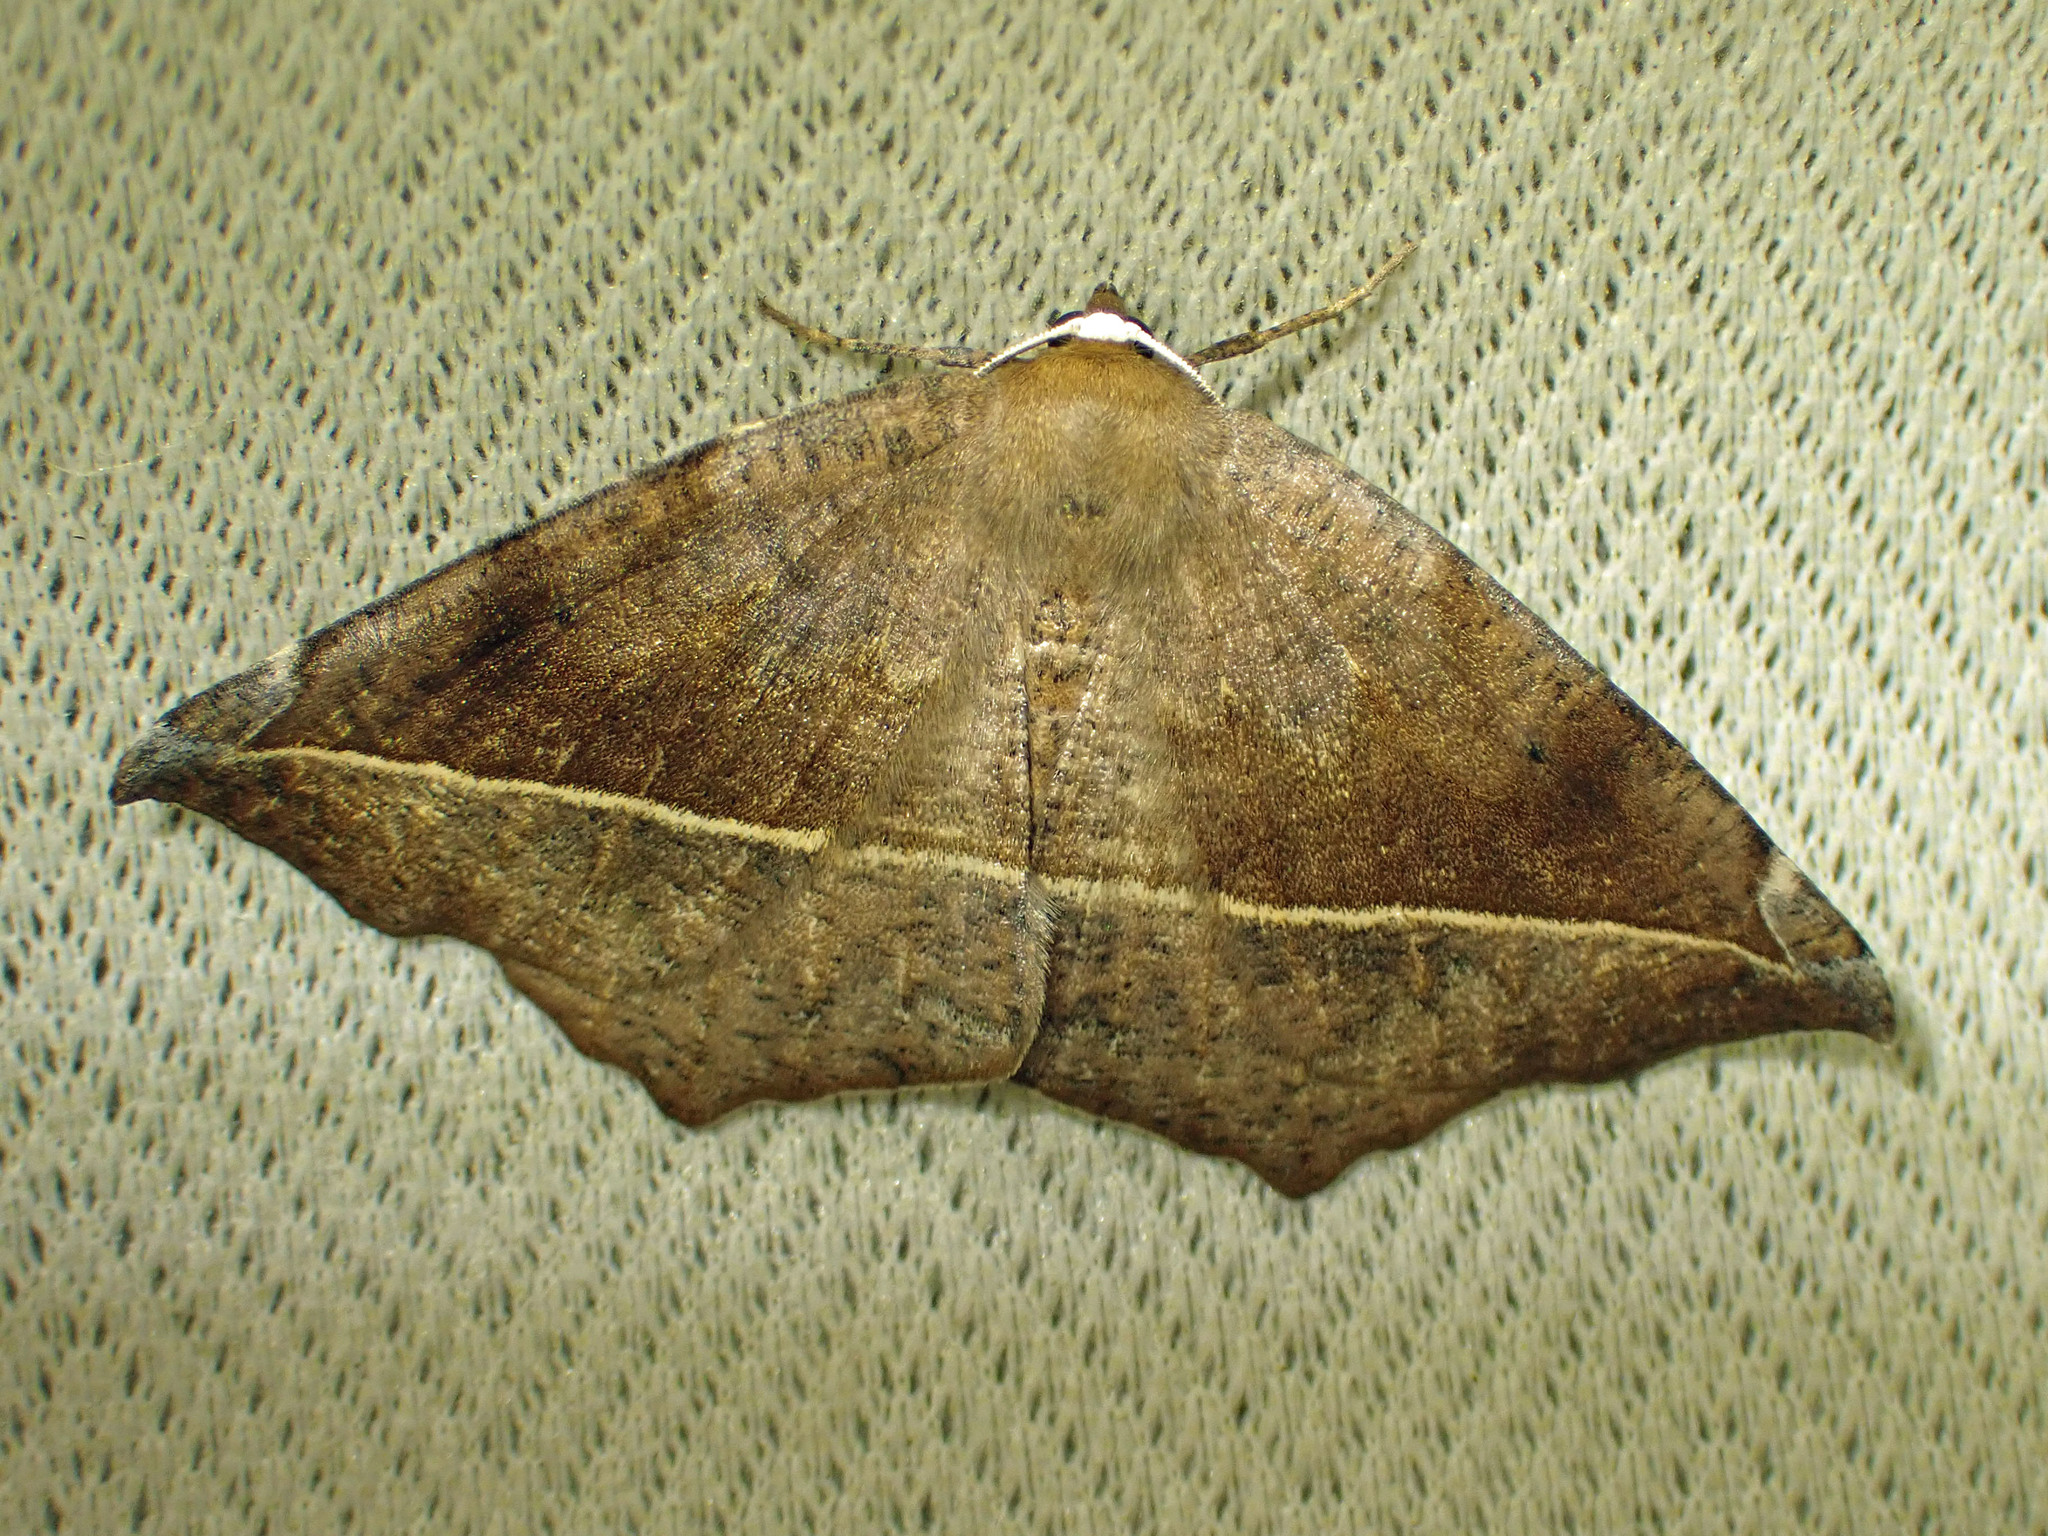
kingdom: Animalia
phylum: Arthropoda
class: Insecta
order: Lepidoptera
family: Geometridae
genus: Eutrapela
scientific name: Eutrapela clemataria
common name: Curved-toothed geometer
